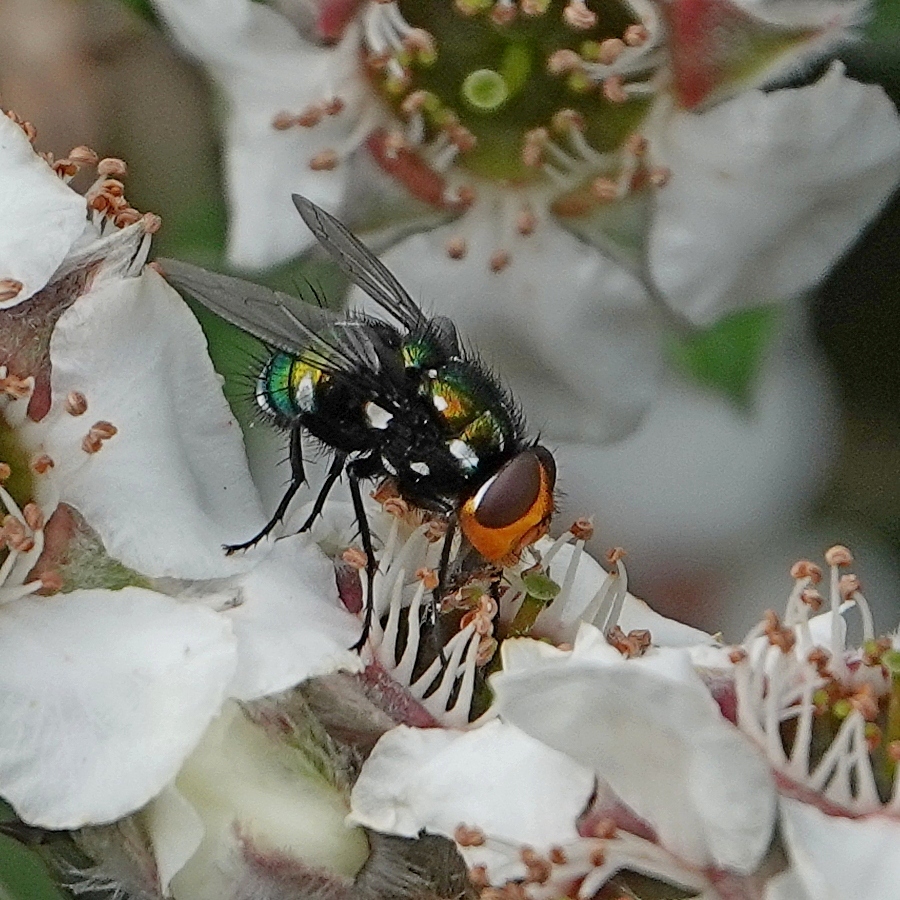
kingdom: Animalia
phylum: Arthropoda
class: Insecta
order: Diptera
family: Calliphoridae
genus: Amenia
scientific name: Amenia chrysame
